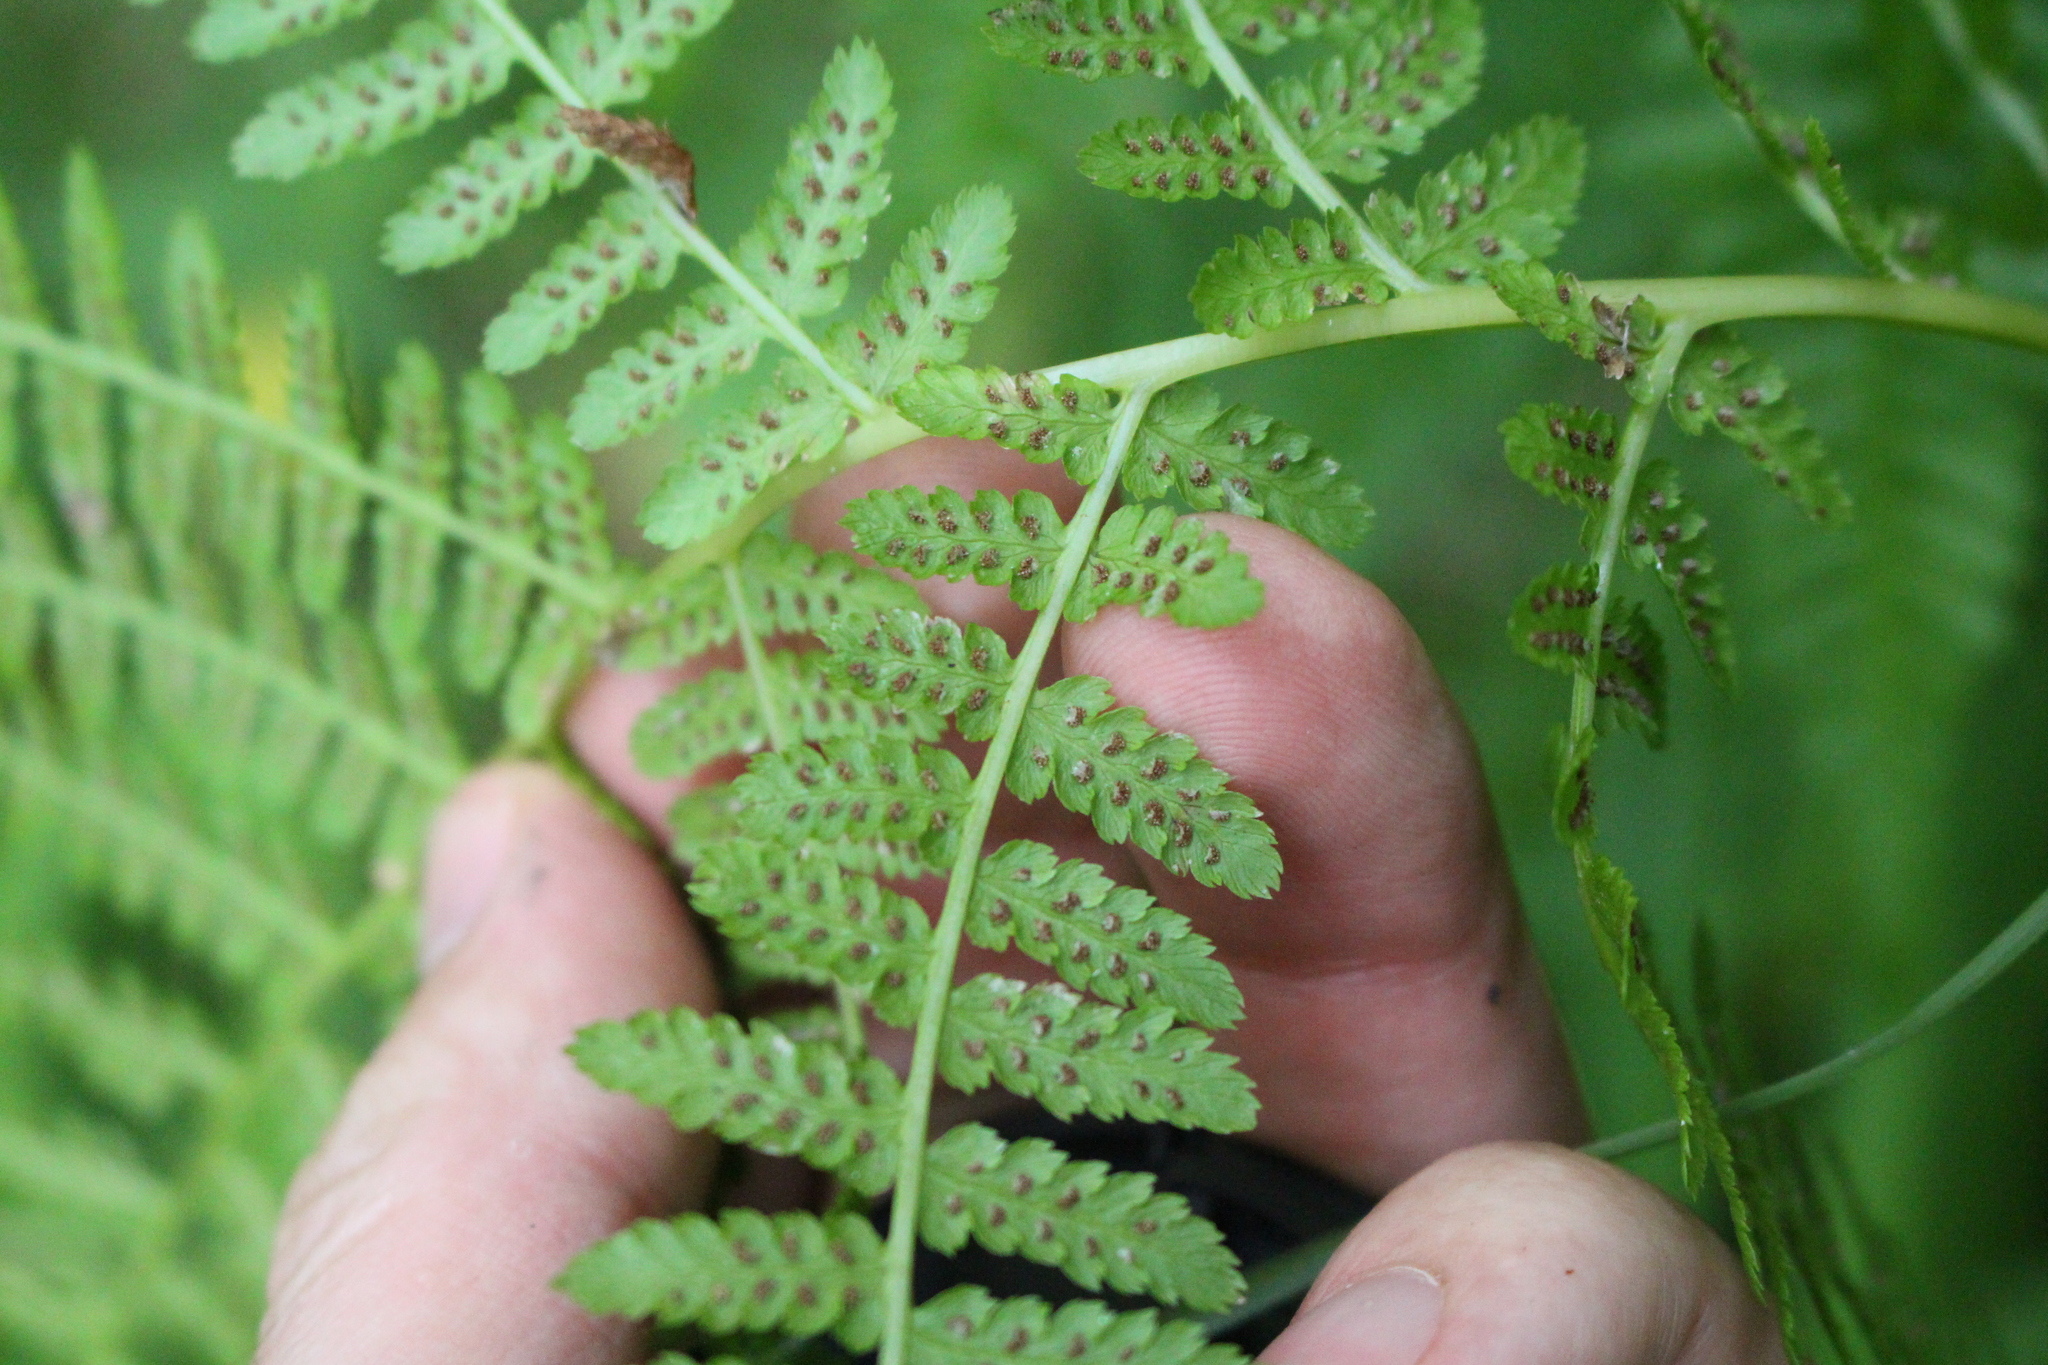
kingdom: Plantae
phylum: Tracheophyta
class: Polypodiopsida
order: Polypodiales
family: Athyriaceae
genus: Athyrium
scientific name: Athyrium filix-femina
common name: Lady fern
